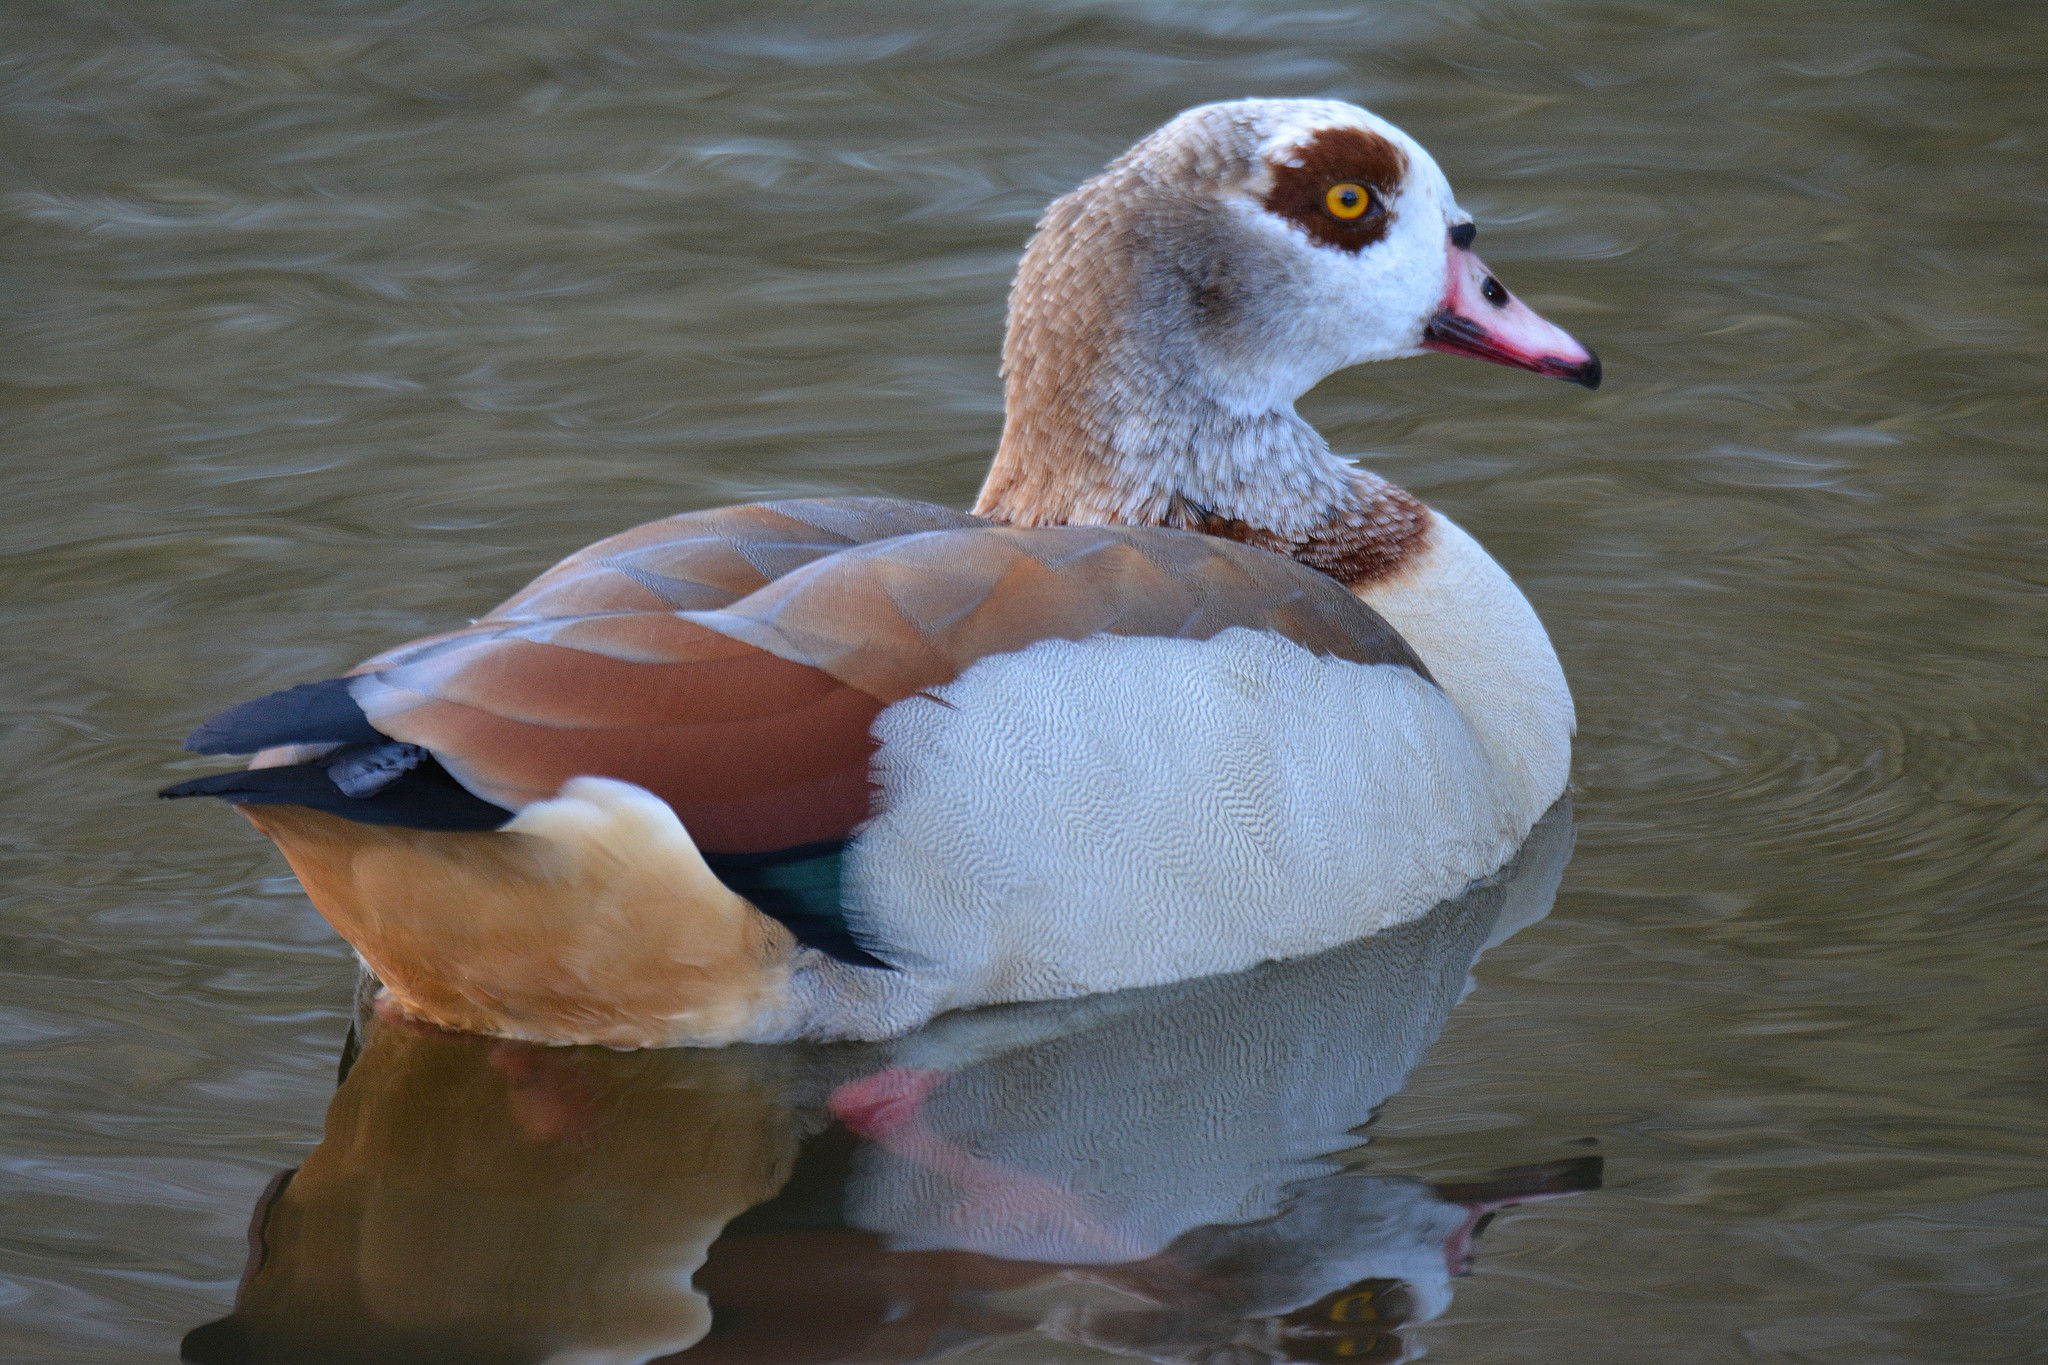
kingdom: Animalia
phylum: Chordata
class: Aves
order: Anseriformes
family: Anatidae
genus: Alopochen
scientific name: Alopochen aegyptiaca
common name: Egyptian goose
